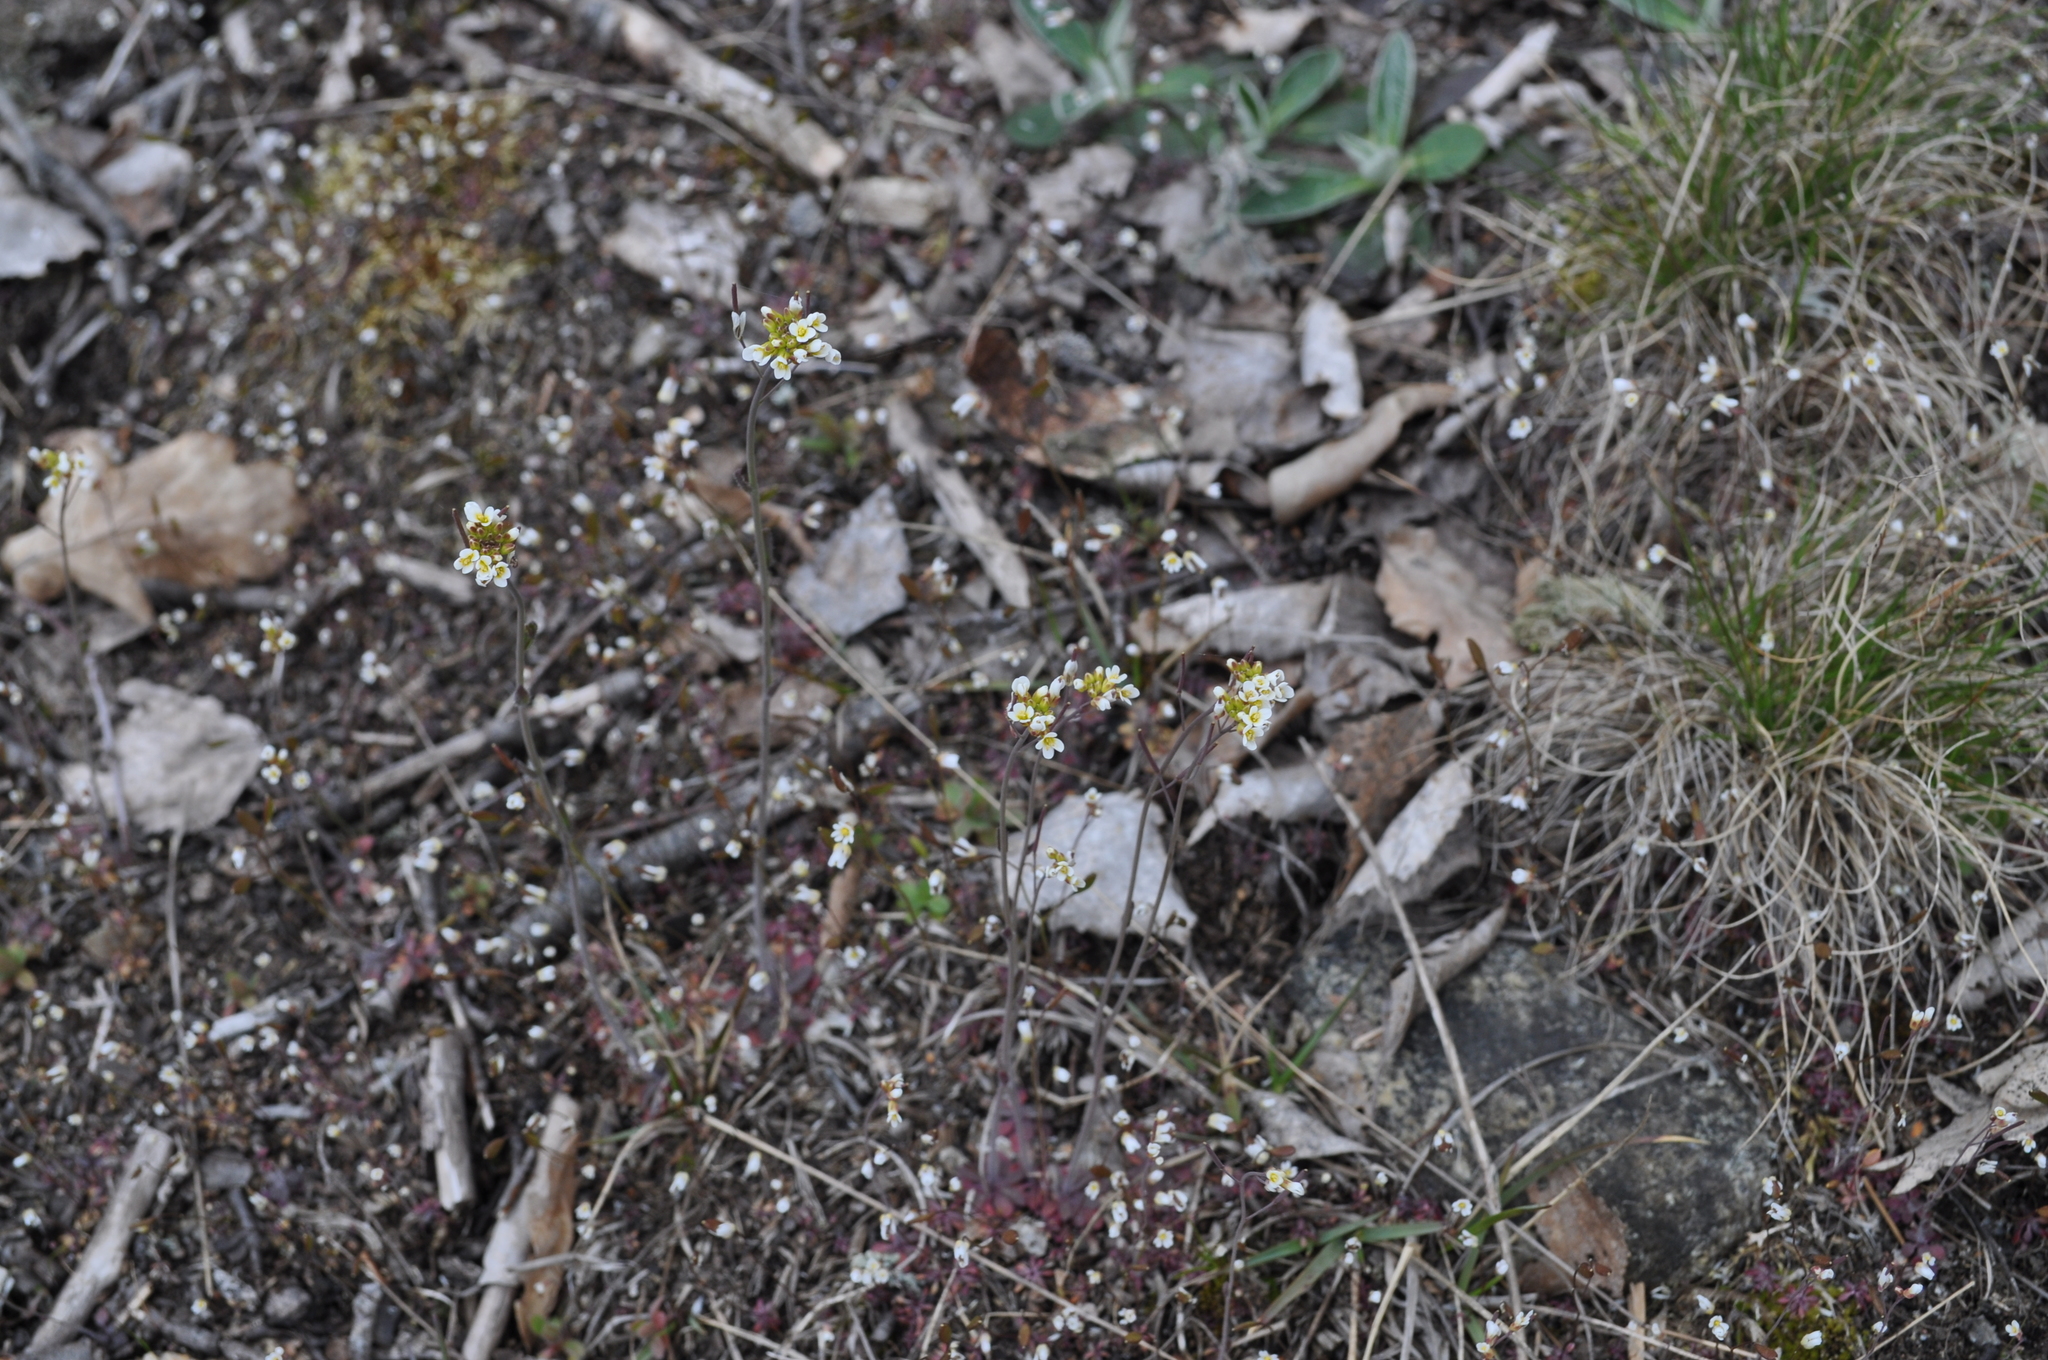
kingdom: Plantae
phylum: Tracheophyta
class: Magnoliopsida
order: Brassicales
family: Brassicaceae
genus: Arabidopsis
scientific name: Arabidopsis thaliana
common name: Thale cress
